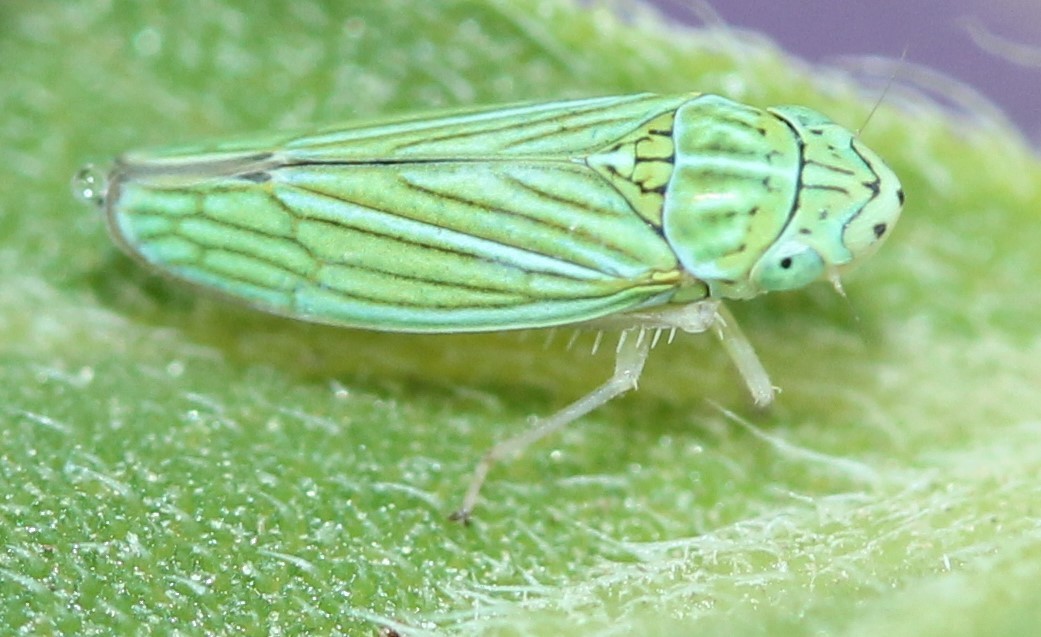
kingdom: Animalia
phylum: Arthropoda
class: Insecta
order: Hemiptera
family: Cicadellidae
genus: Graphocephala
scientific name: Graphocephala cythura
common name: Leafhopper
